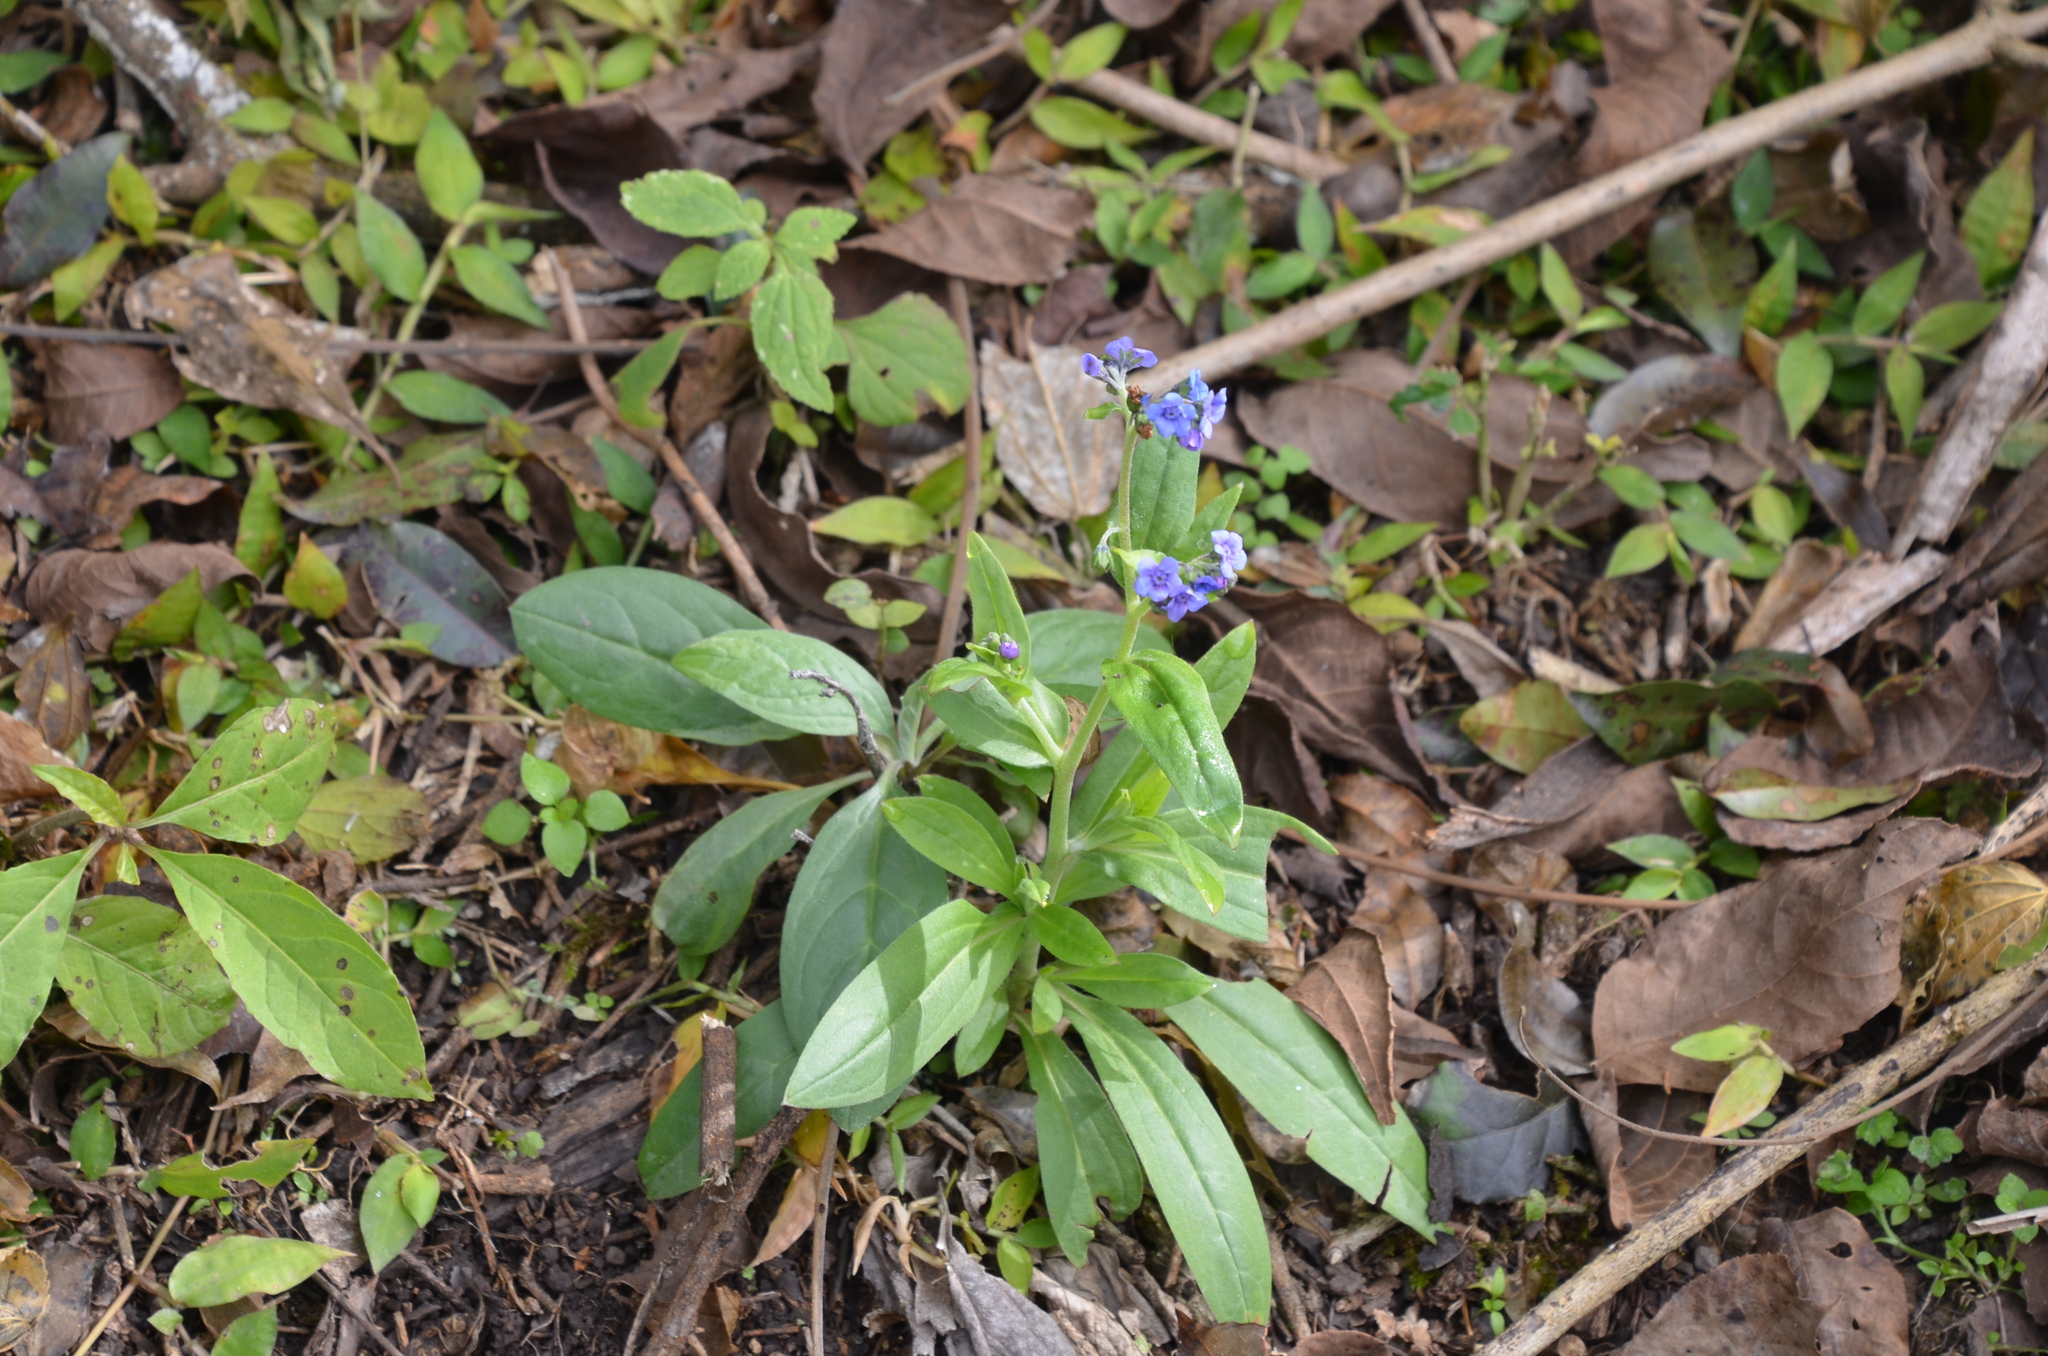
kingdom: Plantae
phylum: Tracheophyta
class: Magnoliopsida
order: Boraginales
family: Boraginaceae
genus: Cynoglossum
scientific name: Cynoglossum amabile
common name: Chinese hound's tongue
